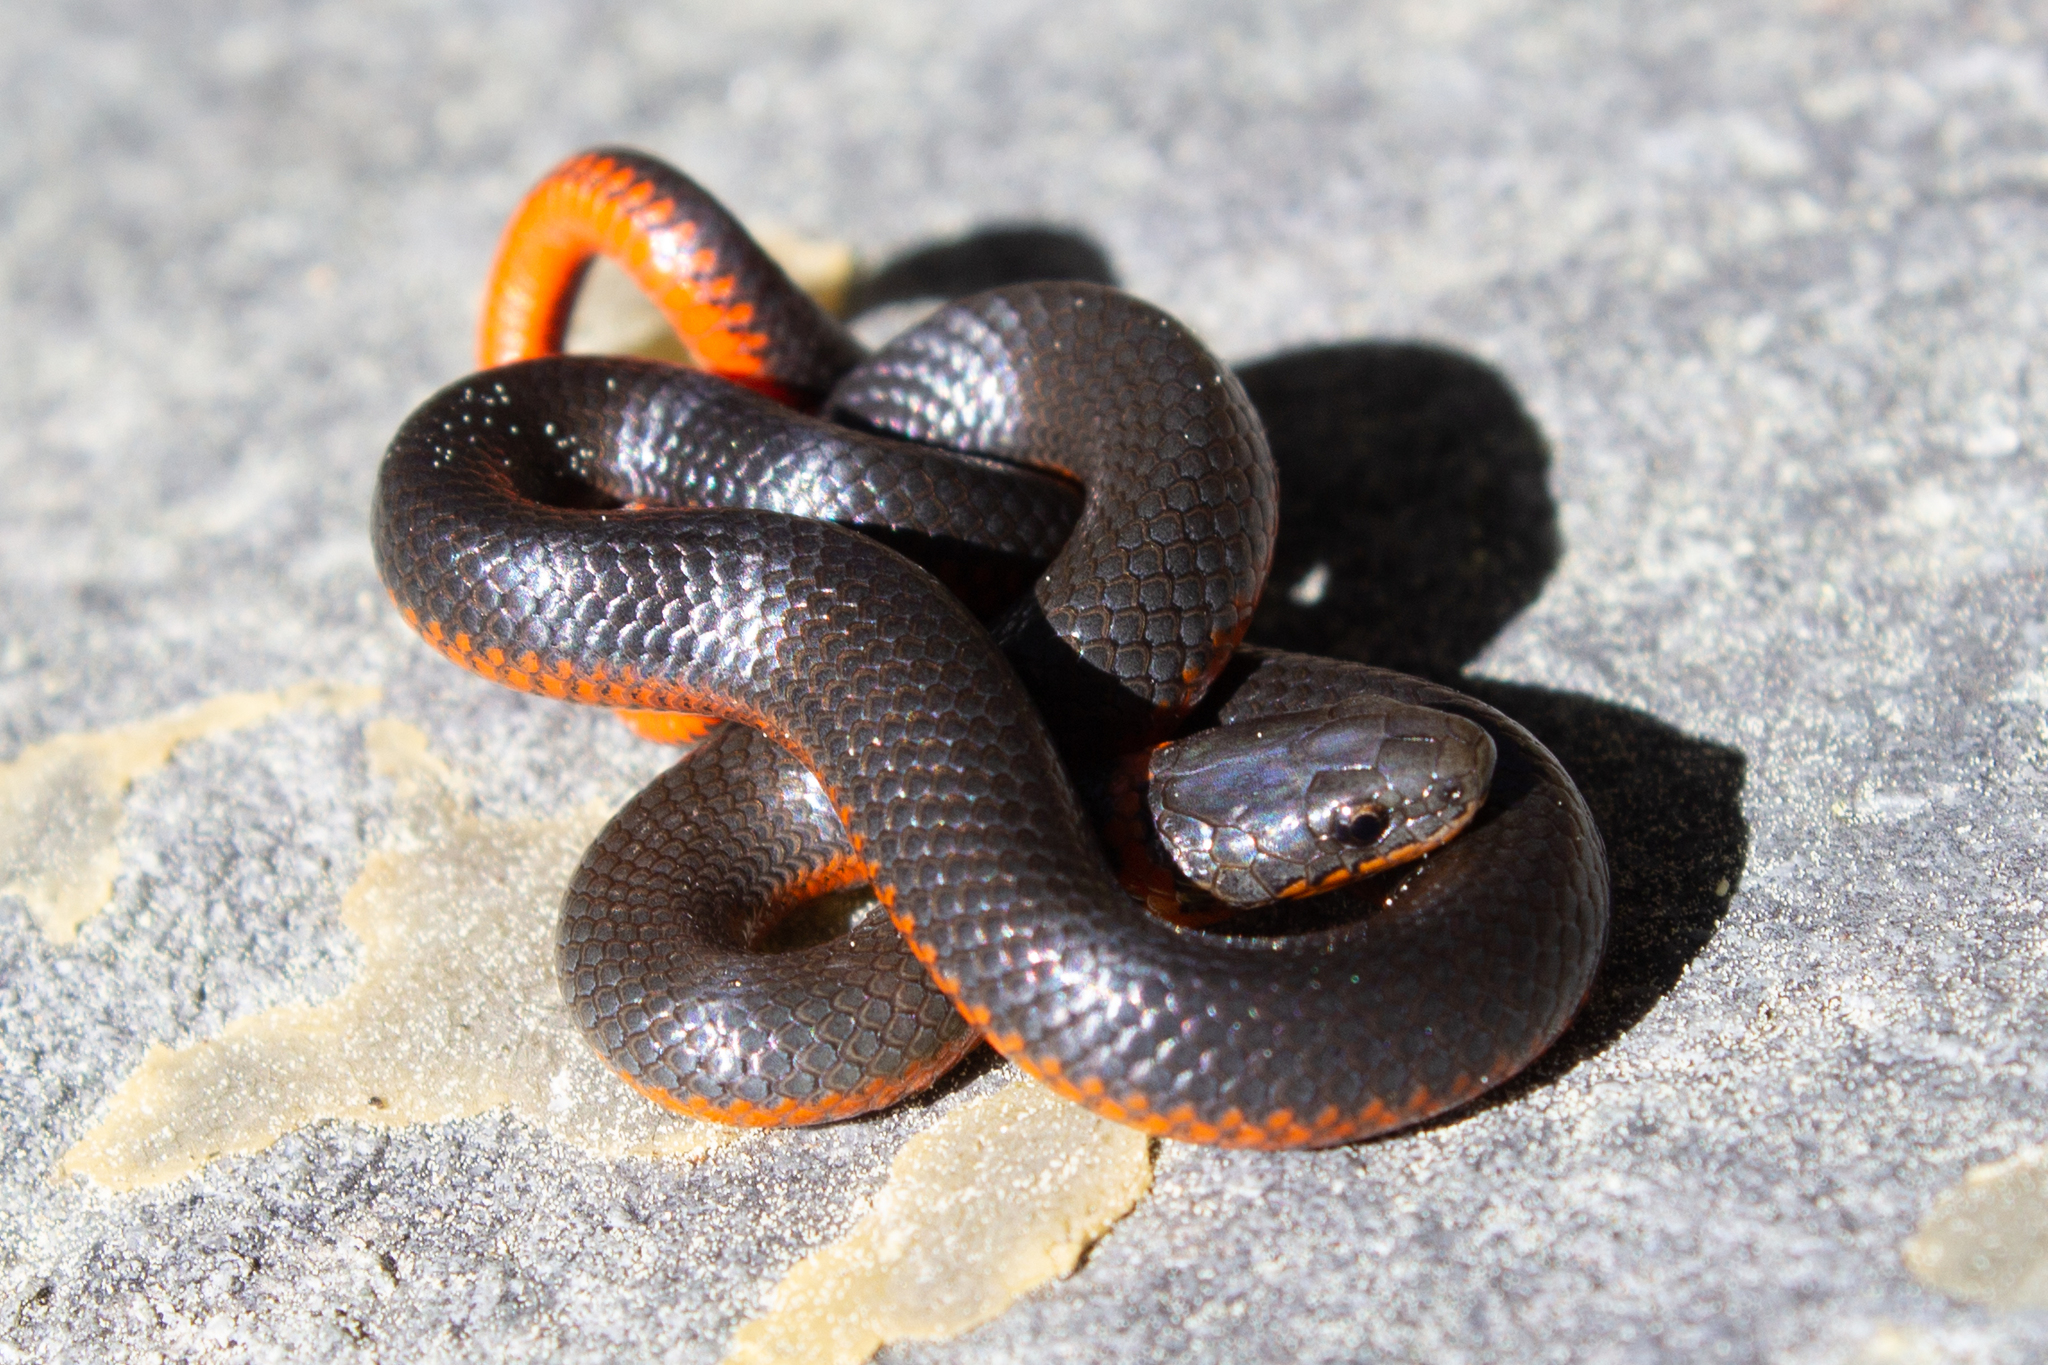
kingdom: Animalia
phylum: Chordata
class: Squamata
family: Colubridae
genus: Diadophis
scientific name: Diadophis punctatus
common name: Ringneck snake
